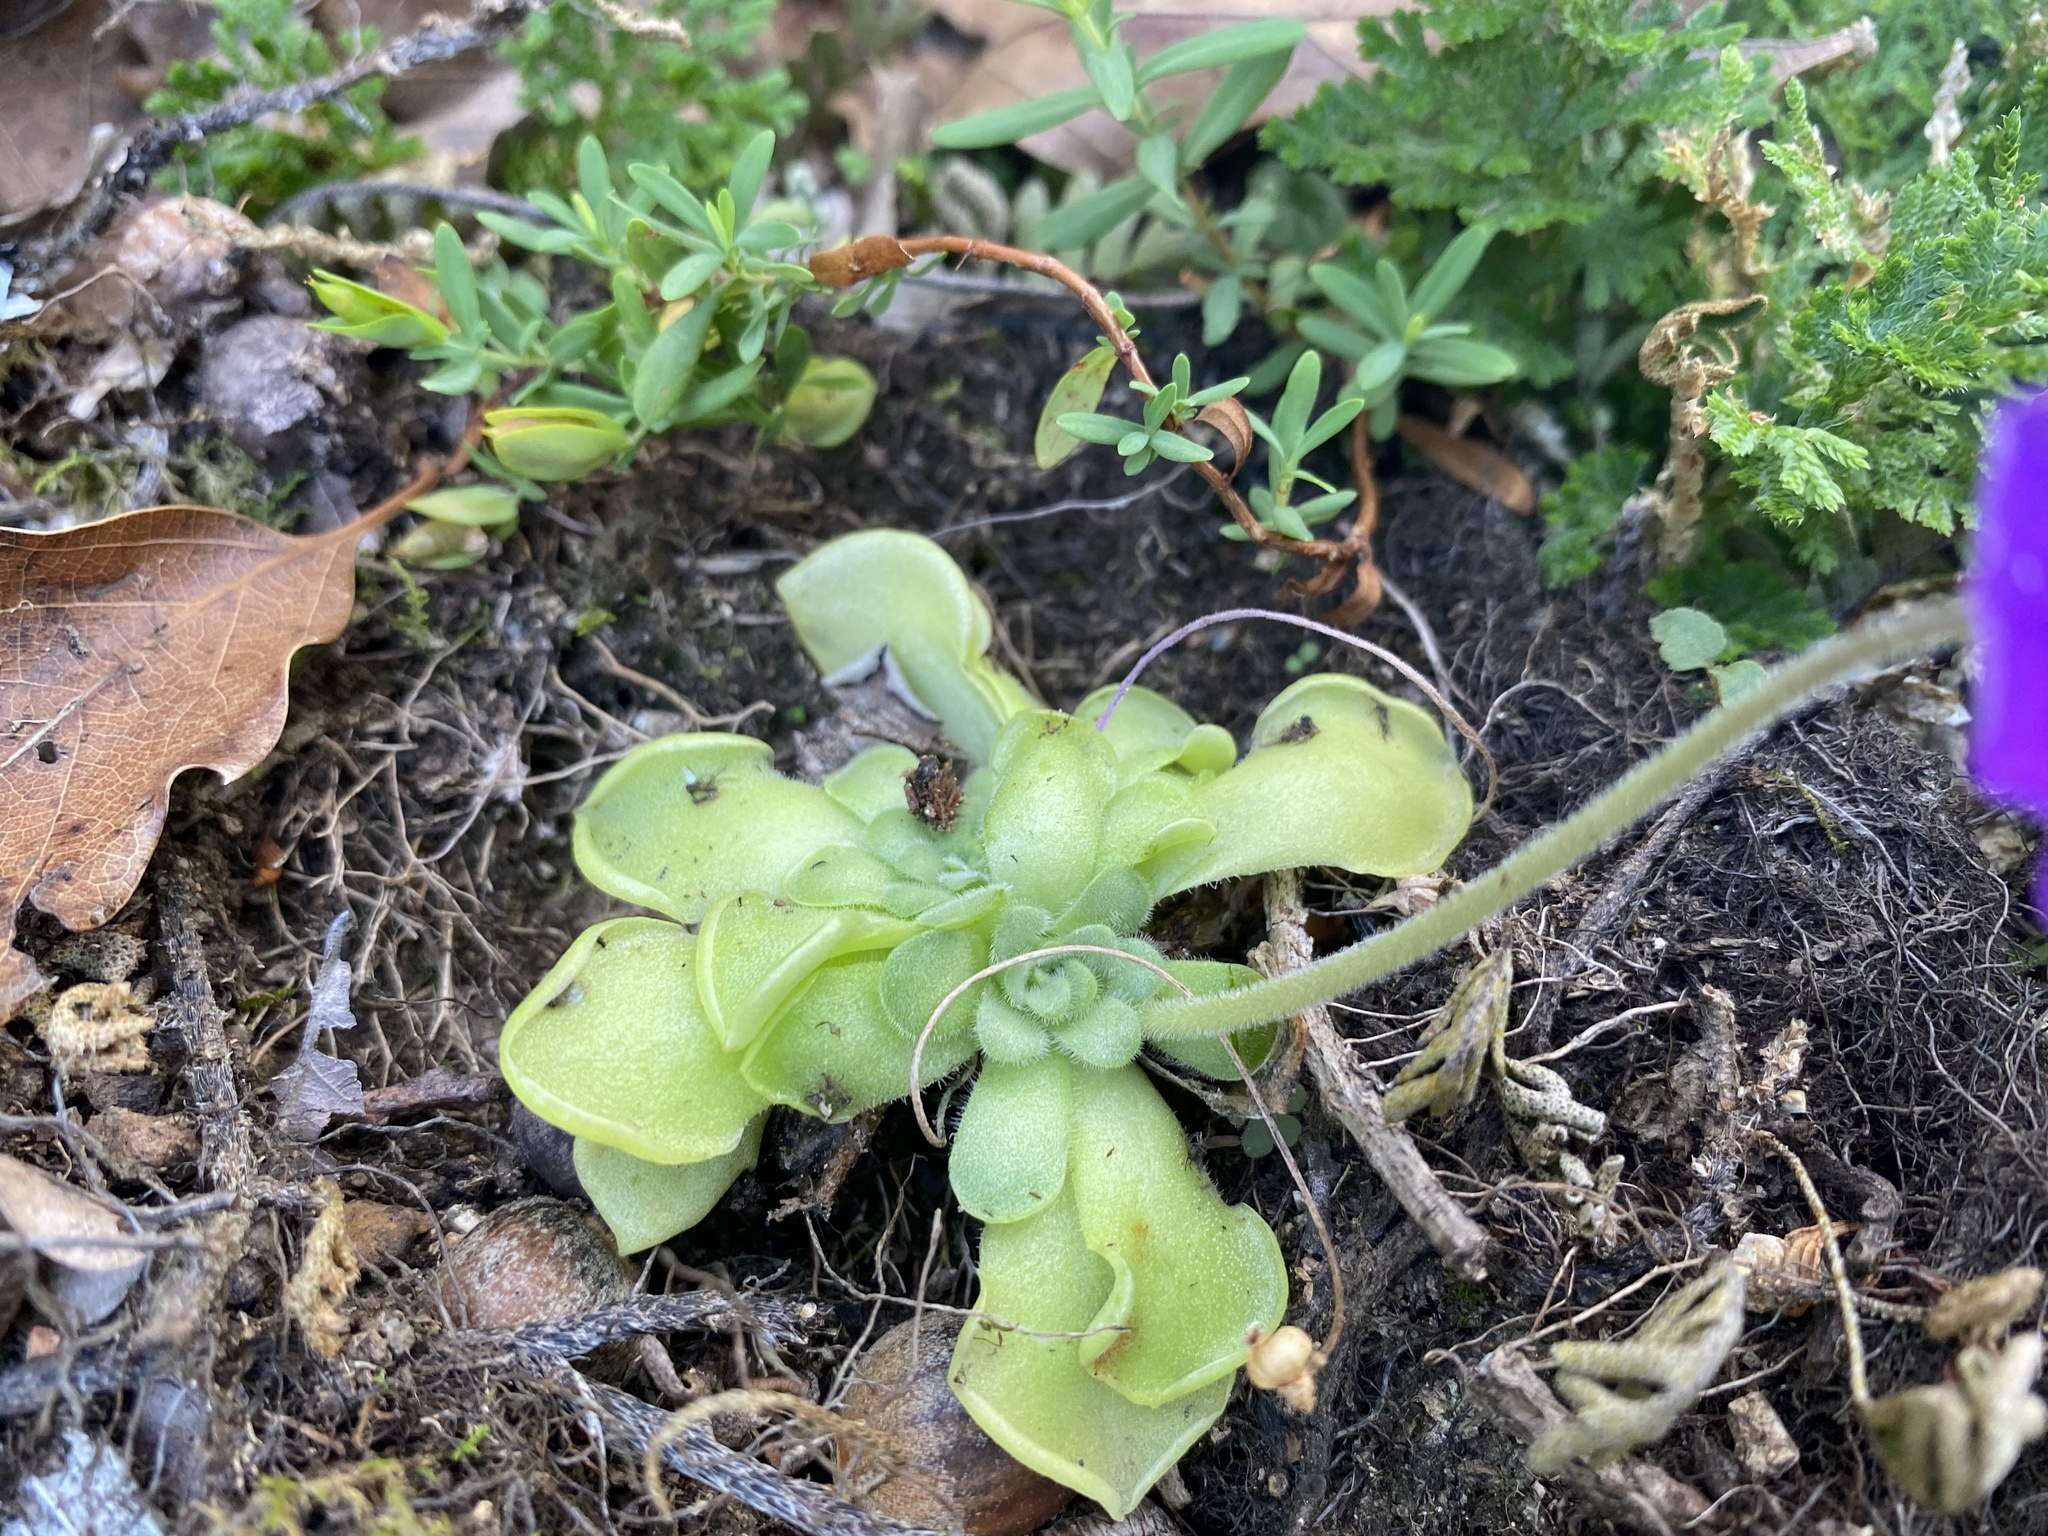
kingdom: Plantae
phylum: Tracheophyta
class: Magnoliopsida
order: Lamiales
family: Lentibulariaceae
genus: Pinguicula
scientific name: Pinguicula cyclosecta
